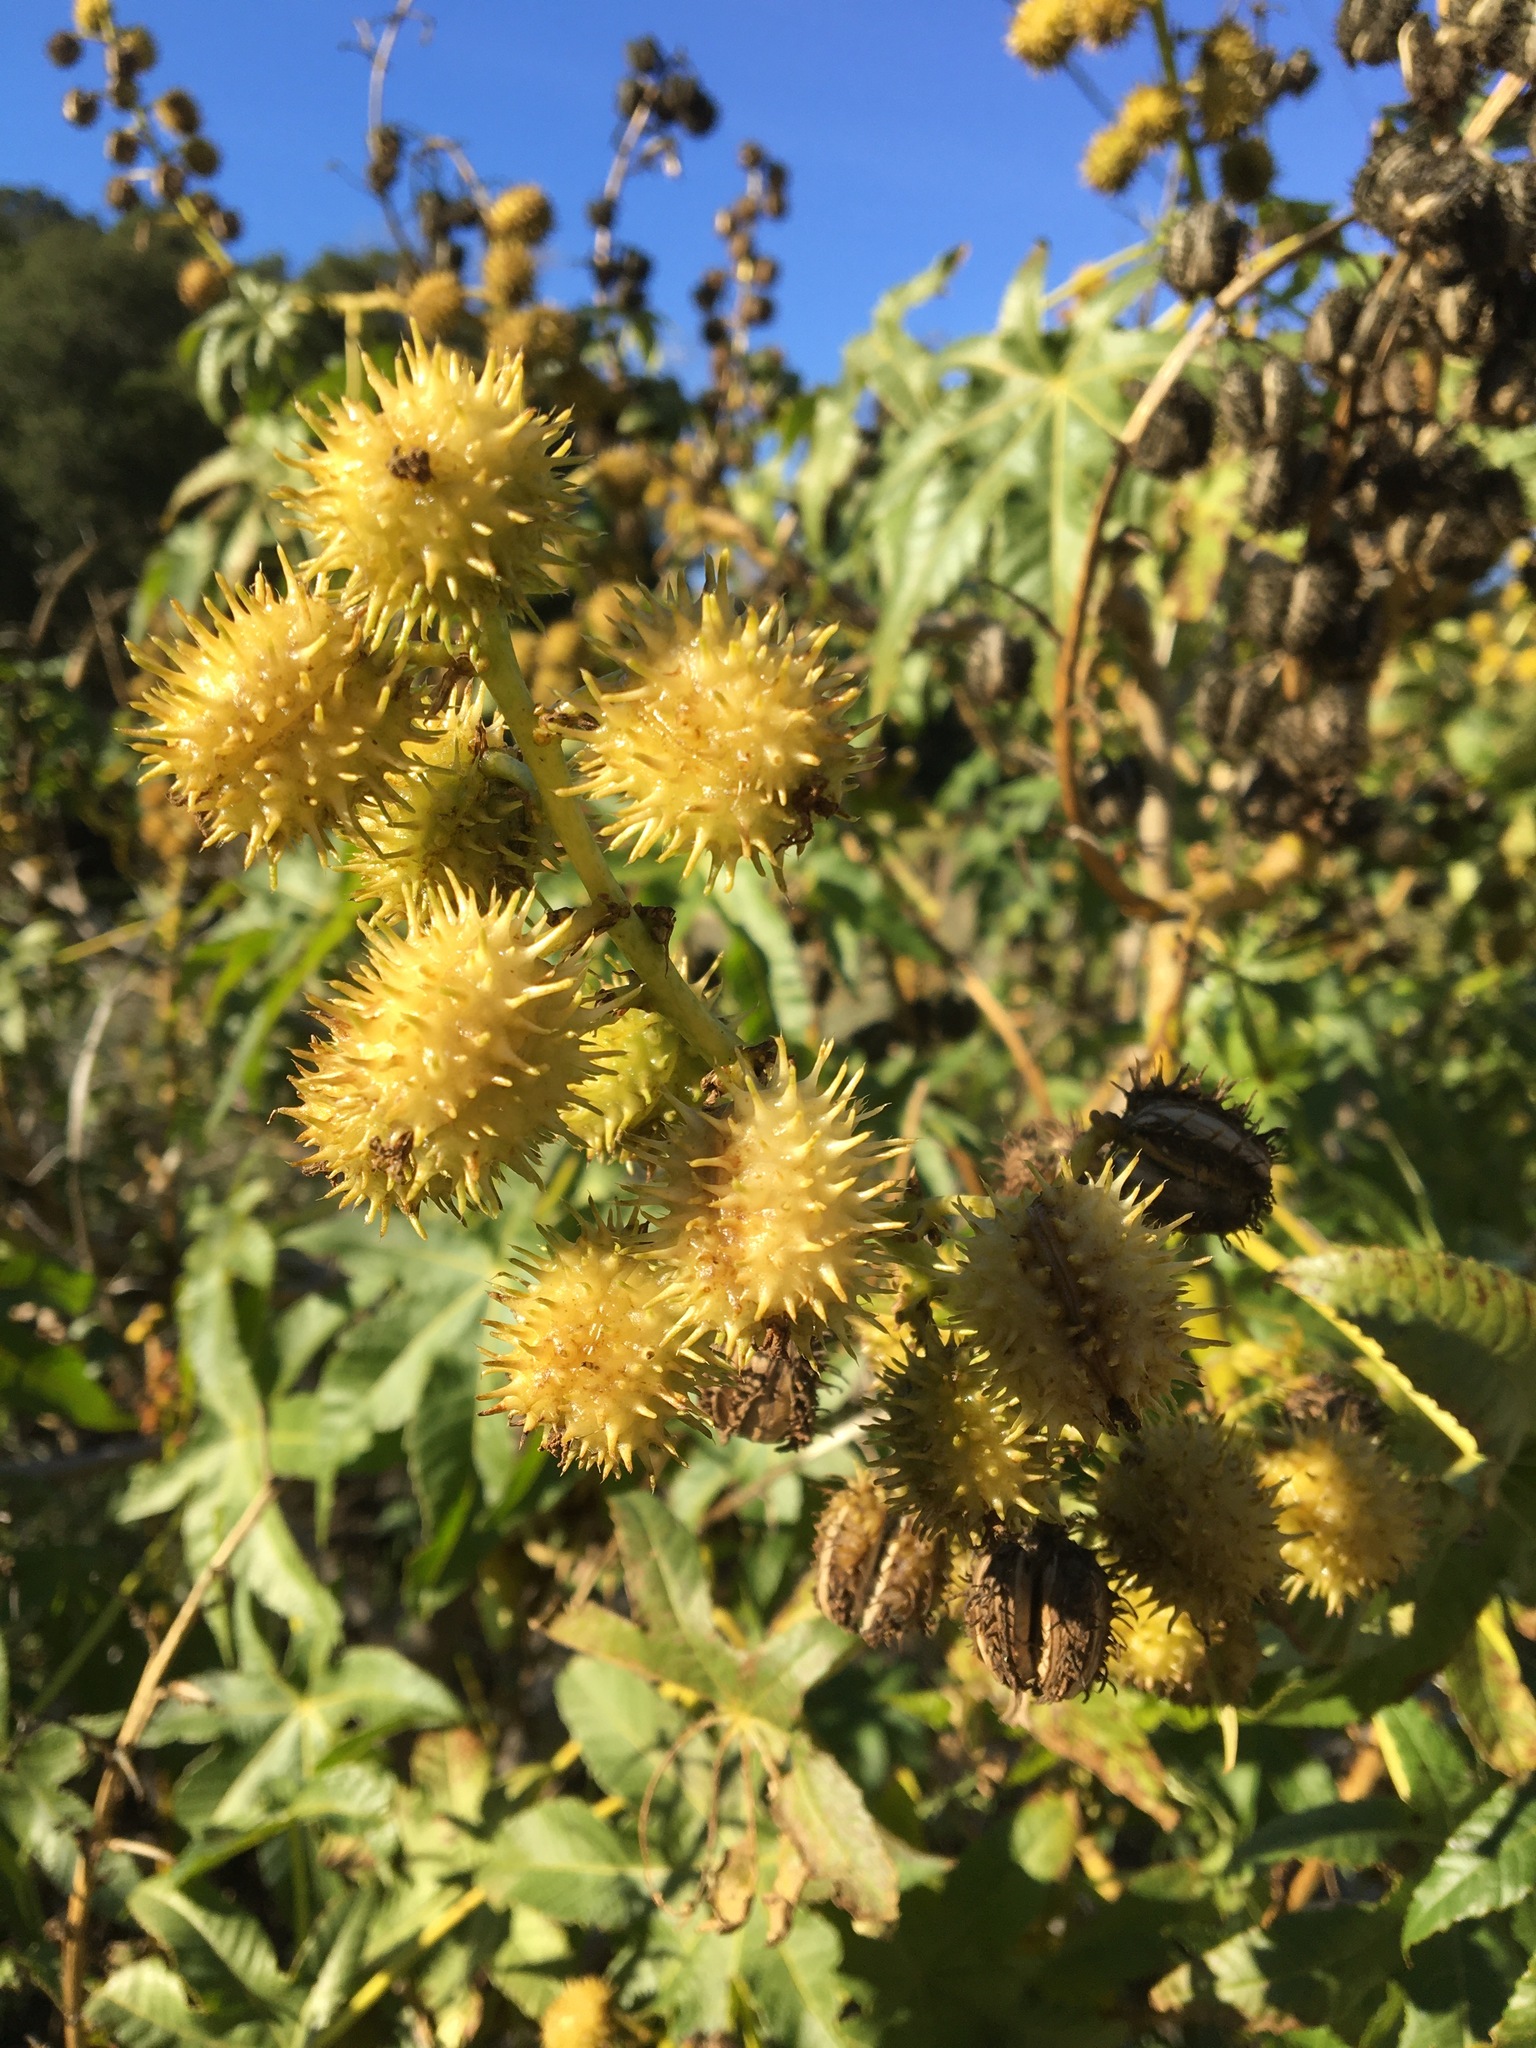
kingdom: Plantae
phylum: Tracheophyta
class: Magnoliopsida
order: Malpighiales
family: Euphorbiaceae
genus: Ricinus
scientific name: Ricinus communis
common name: Castor-oil-plant
